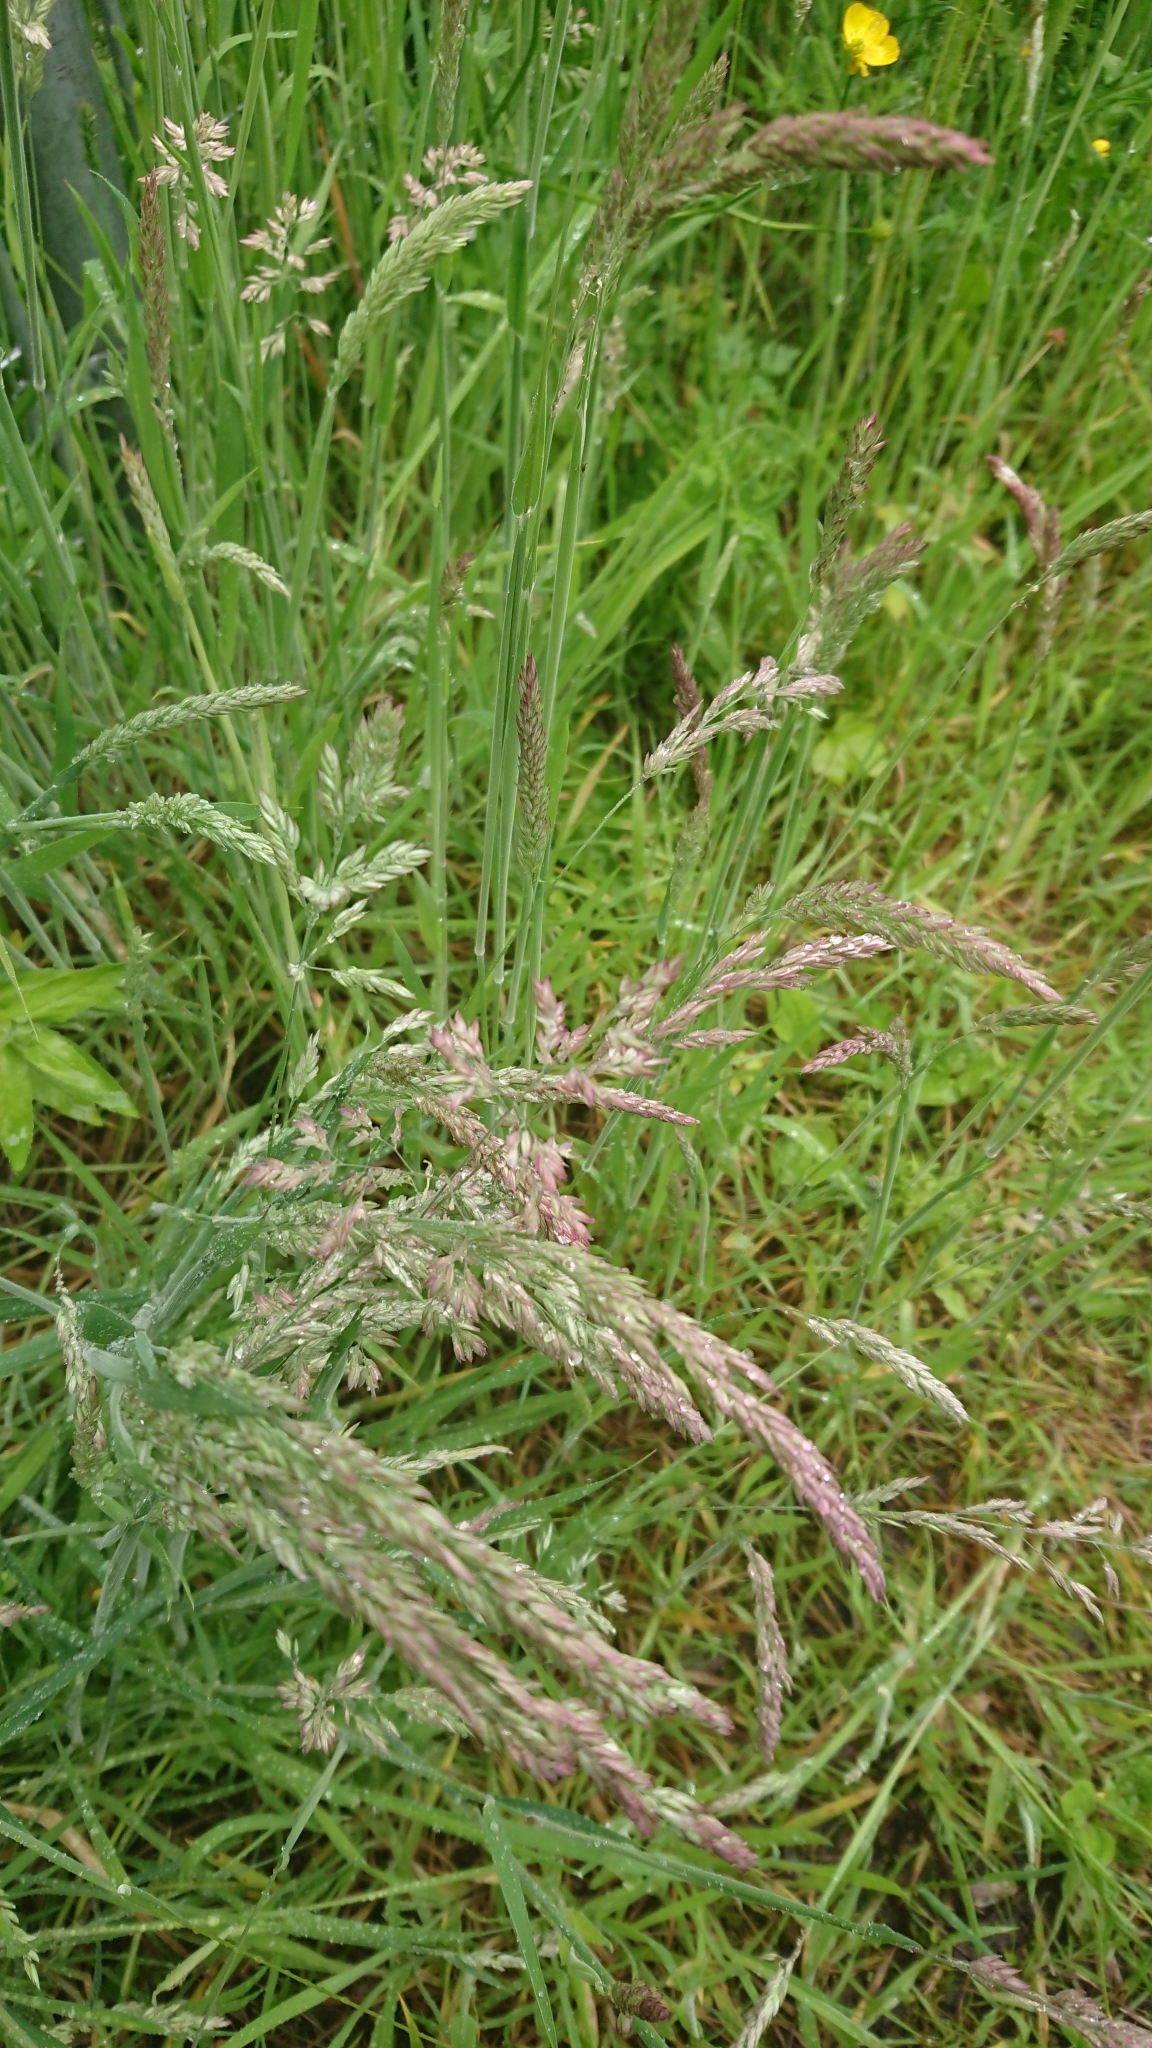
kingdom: Plantae
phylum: Tracheophyta
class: Liliopsida
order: Poales
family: Poaceae
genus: Holcus
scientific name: Holcus lanatus
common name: Yorkshire-fog
